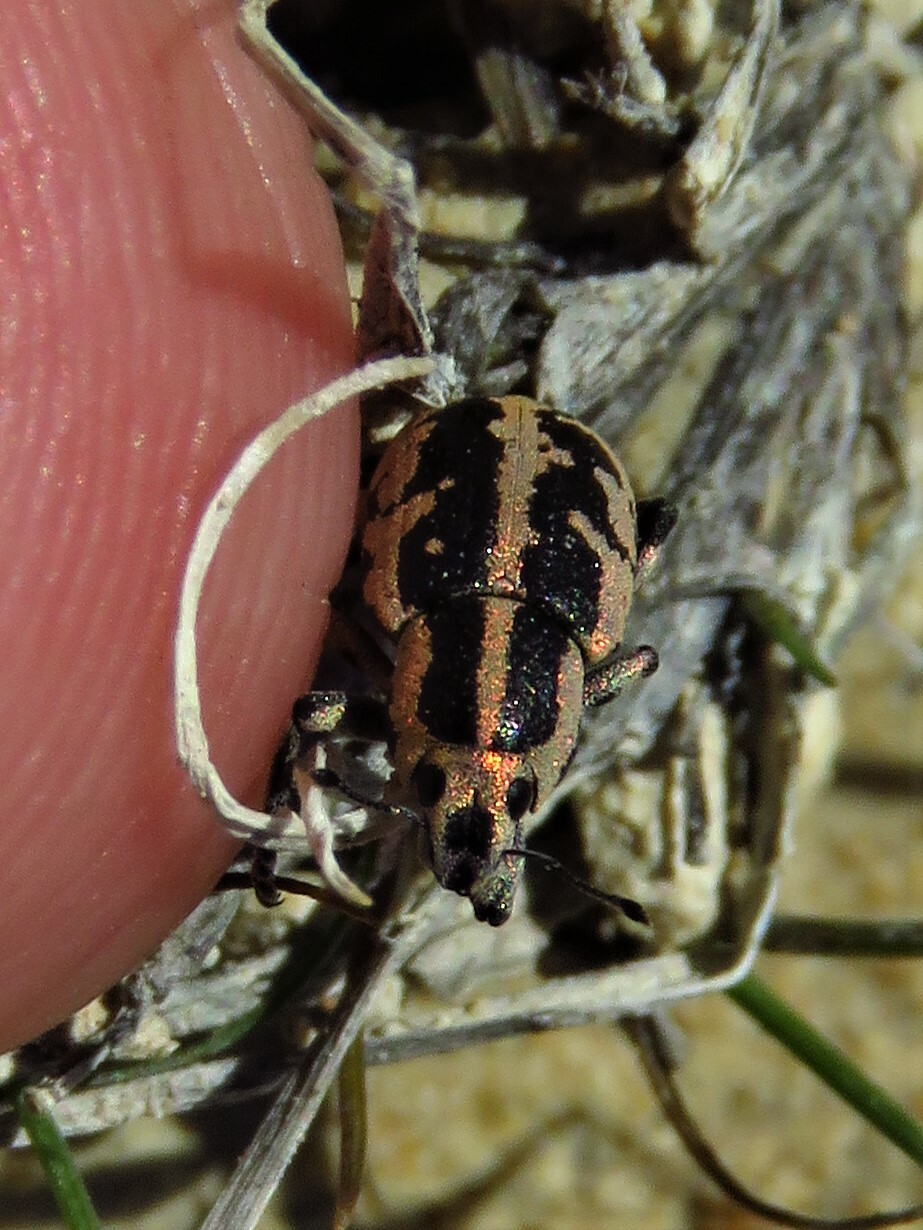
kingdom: Animalia
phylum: Arthropoda
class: Insecta
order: Coleoptera
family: Curculionidae
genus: Eudiagogus
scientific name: Eudiagogus rosenschoeldi
